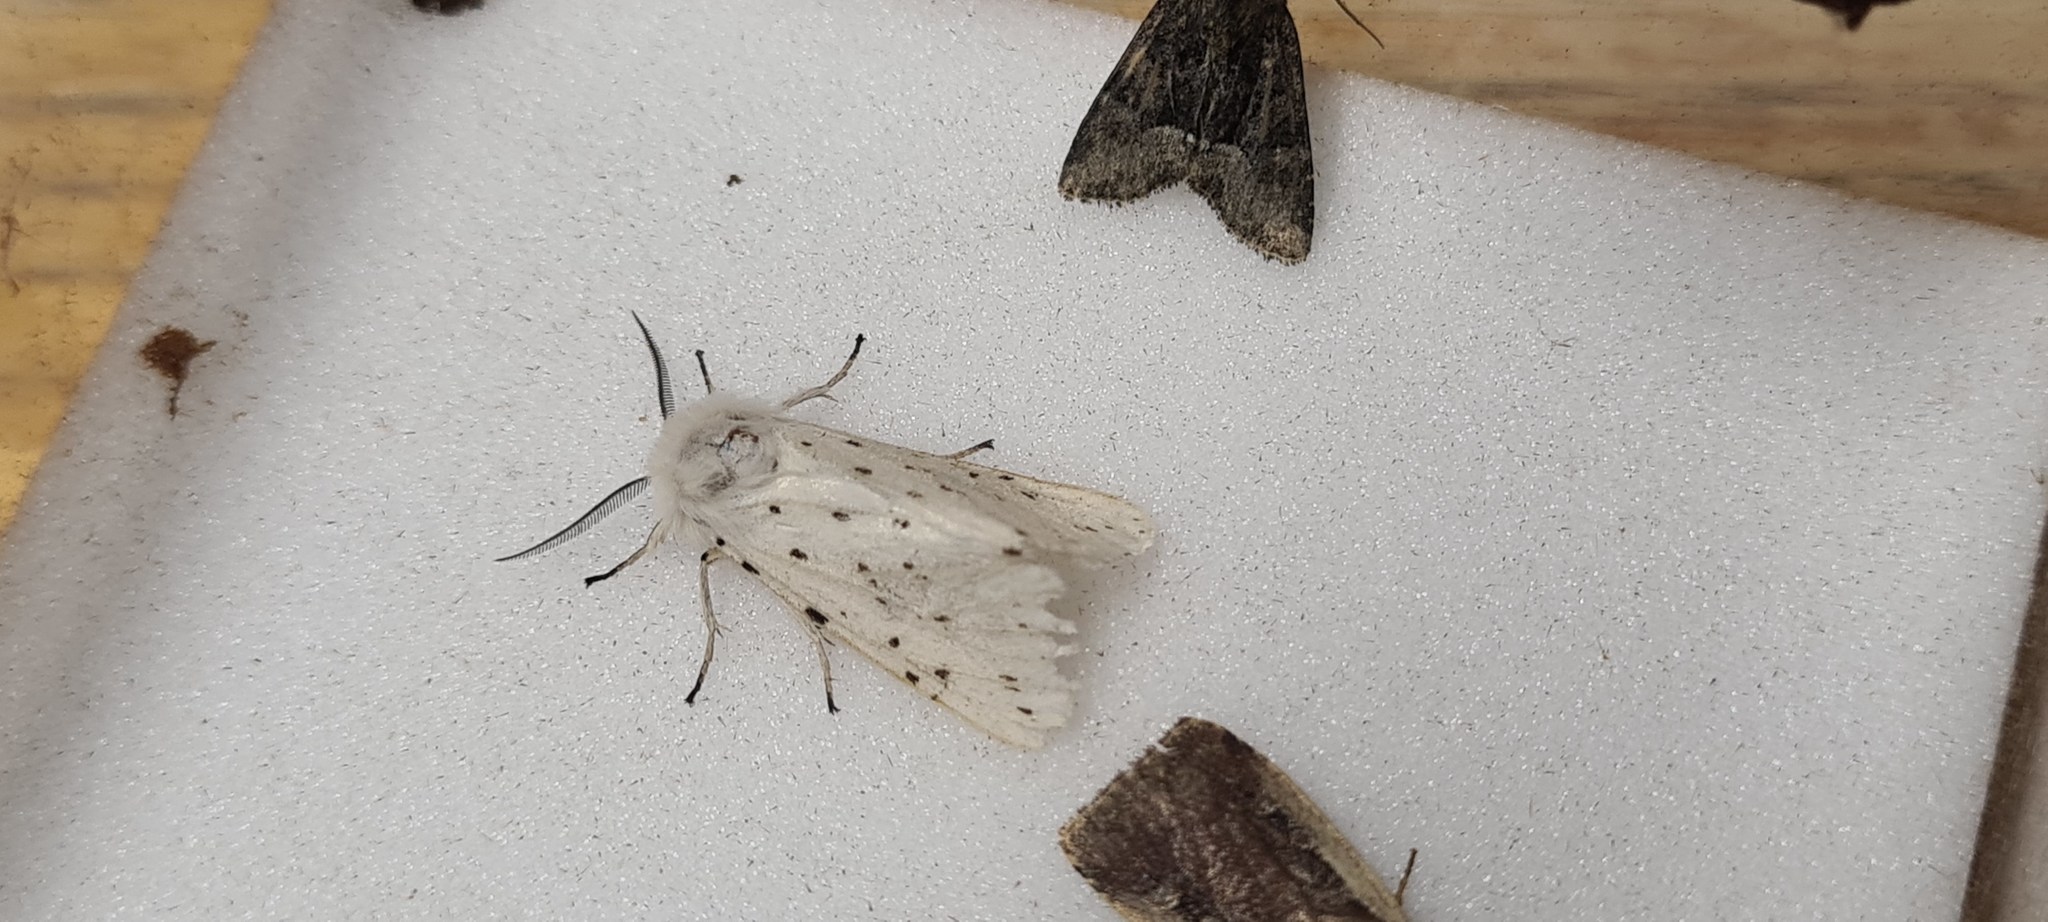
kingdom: Animalia
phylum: Arthropoda
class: Insecta
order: Lepidoptera
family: Erebidae
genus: Spilosoma
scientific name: Spilosoma lubricipeda
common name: White ermine
